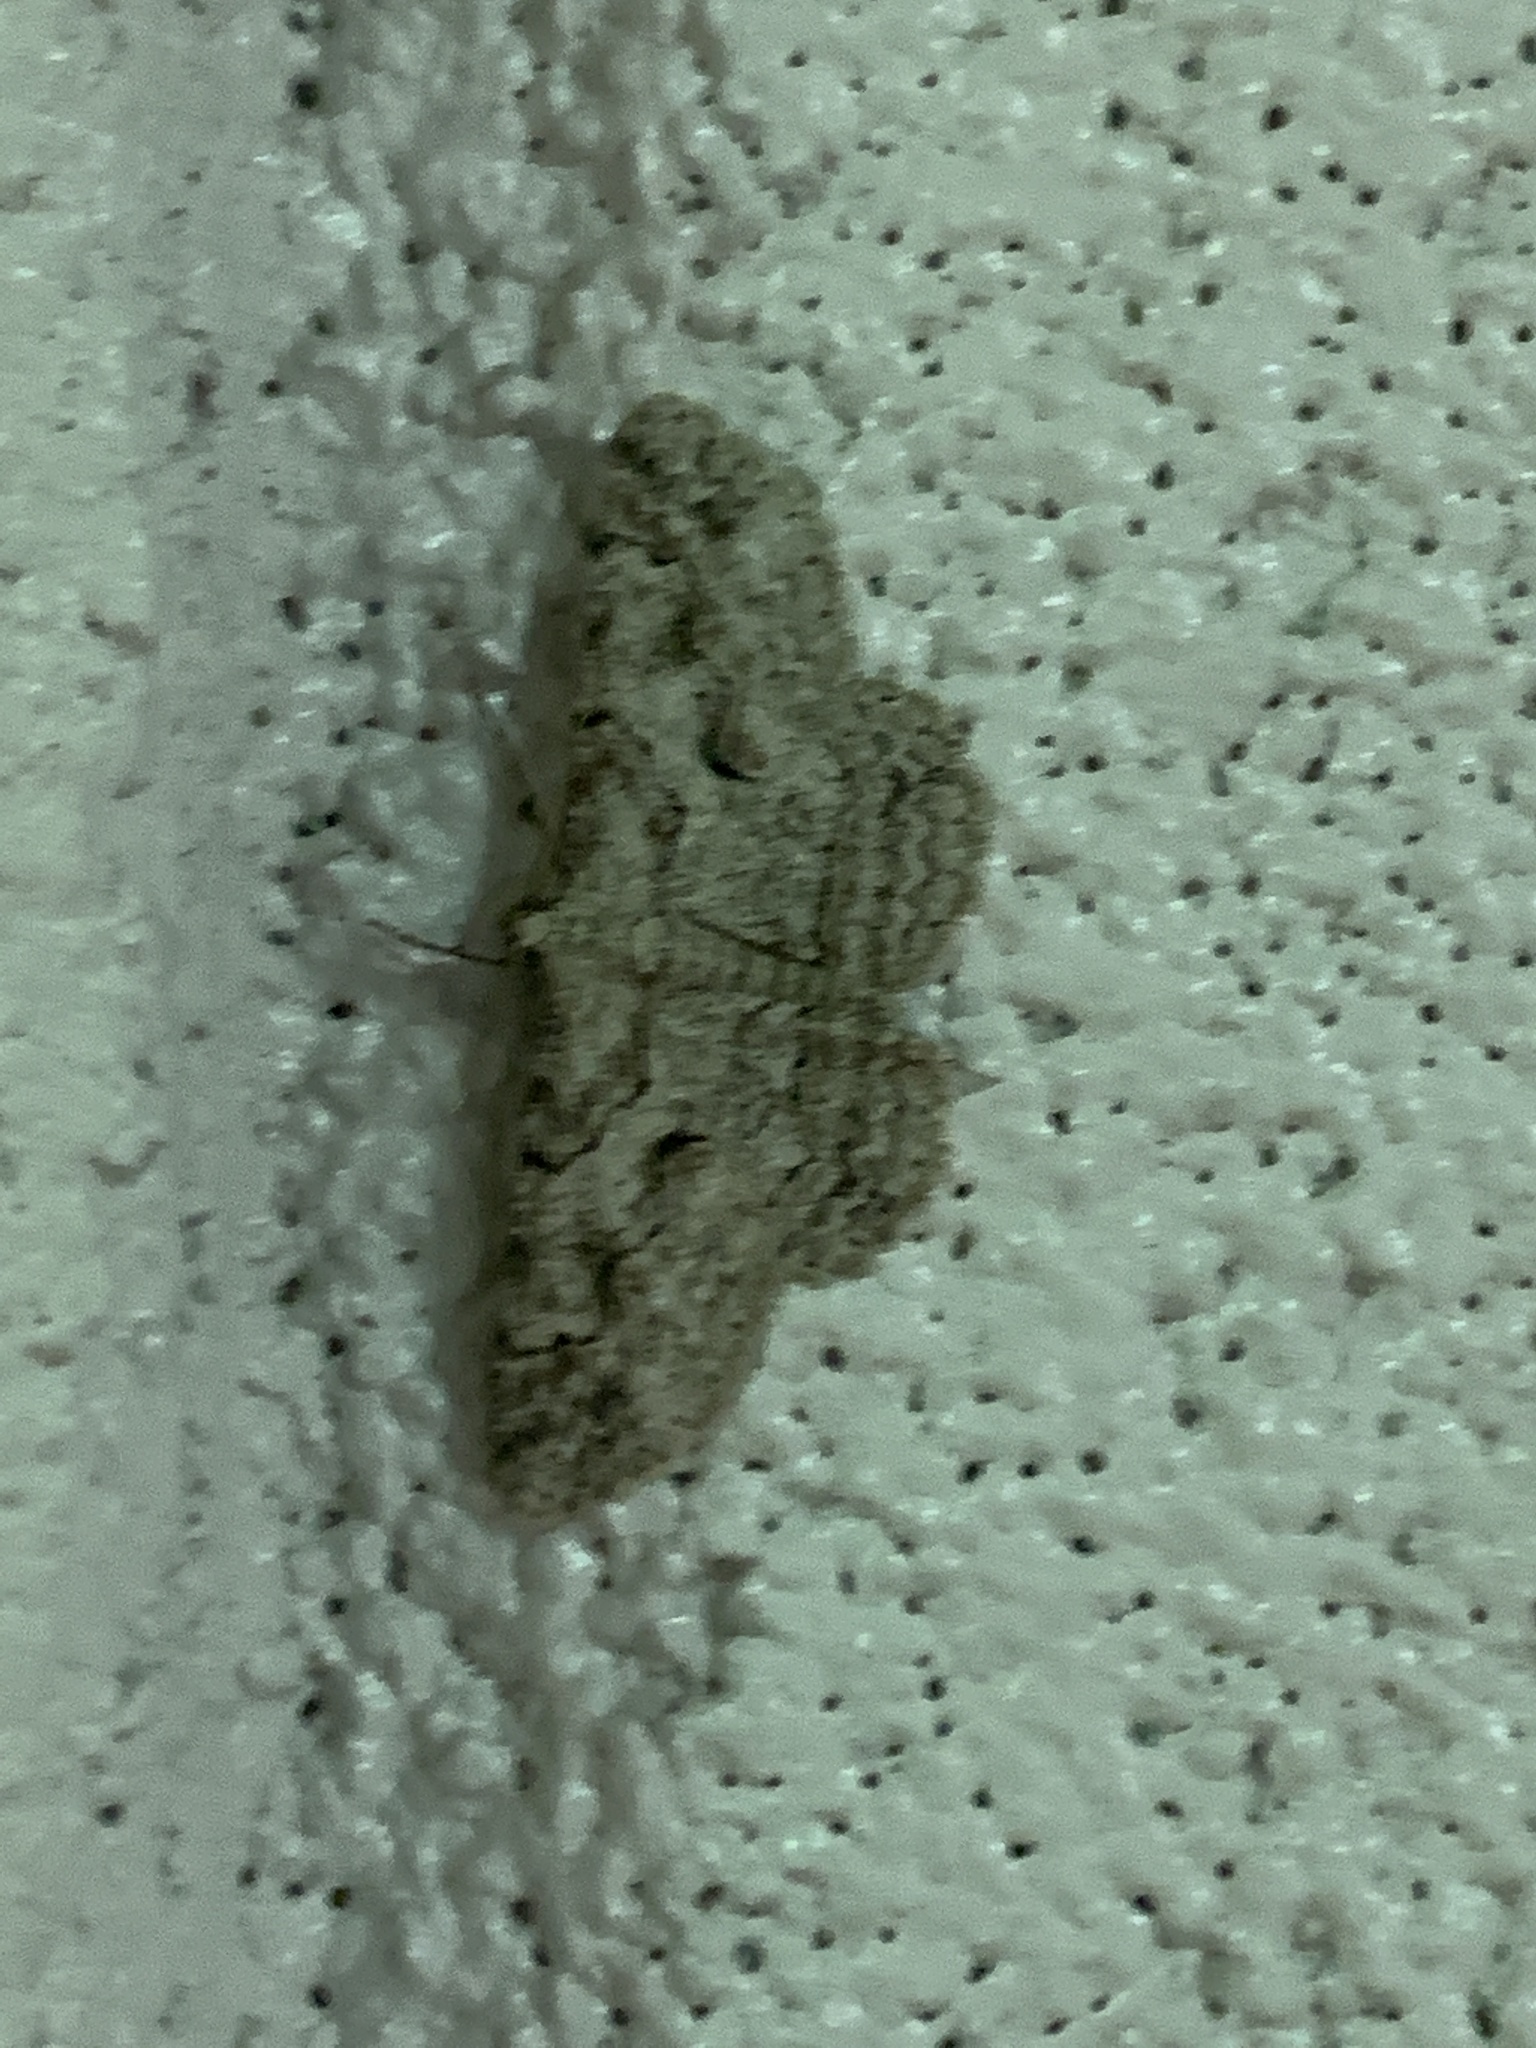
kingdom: Animalia
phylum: Arthropoda
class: Insecta
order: Lepidoptera
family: Geometridae
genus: Iridopsis
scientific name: Iridopsis defectaria
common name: Brown-shaded gray
